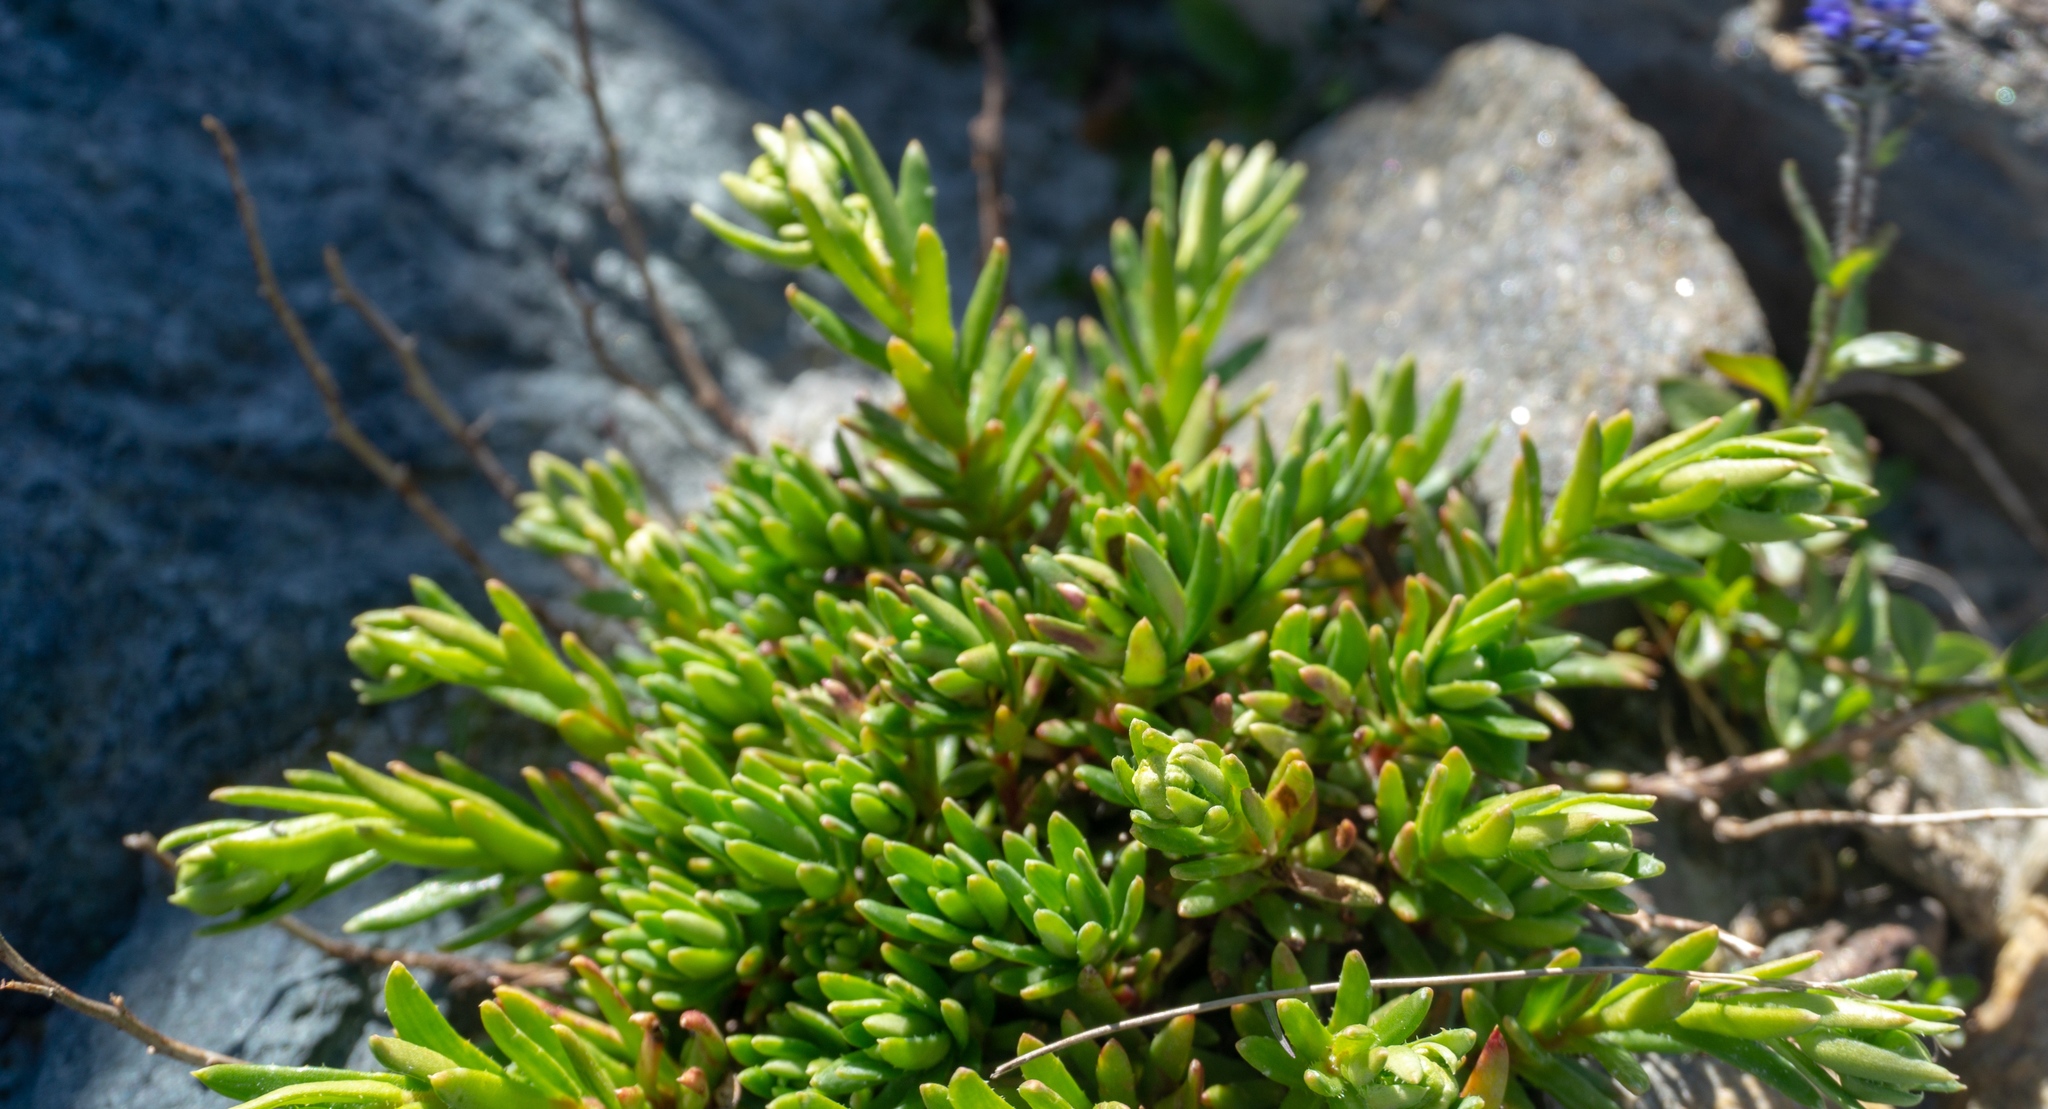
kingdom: Plantae
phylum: Tracheophyta
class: Magnoliopsida
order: Saxifragales
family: Saxifragaceae
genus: Saxifraga
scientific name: Saxifraga aizoides
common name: Yellow mountain saxifrage
